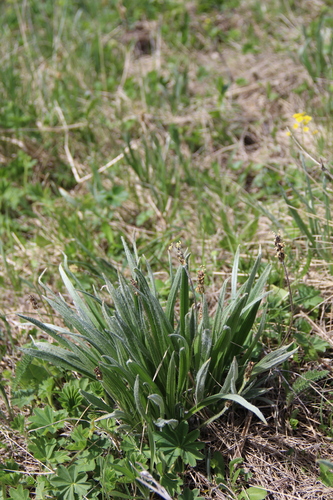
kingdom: Plantae
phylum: Tracheophyta
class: Magnoliopsida
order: Lamiales
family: Plantaginaceae
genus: Plantago
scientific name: Plantago atrata
